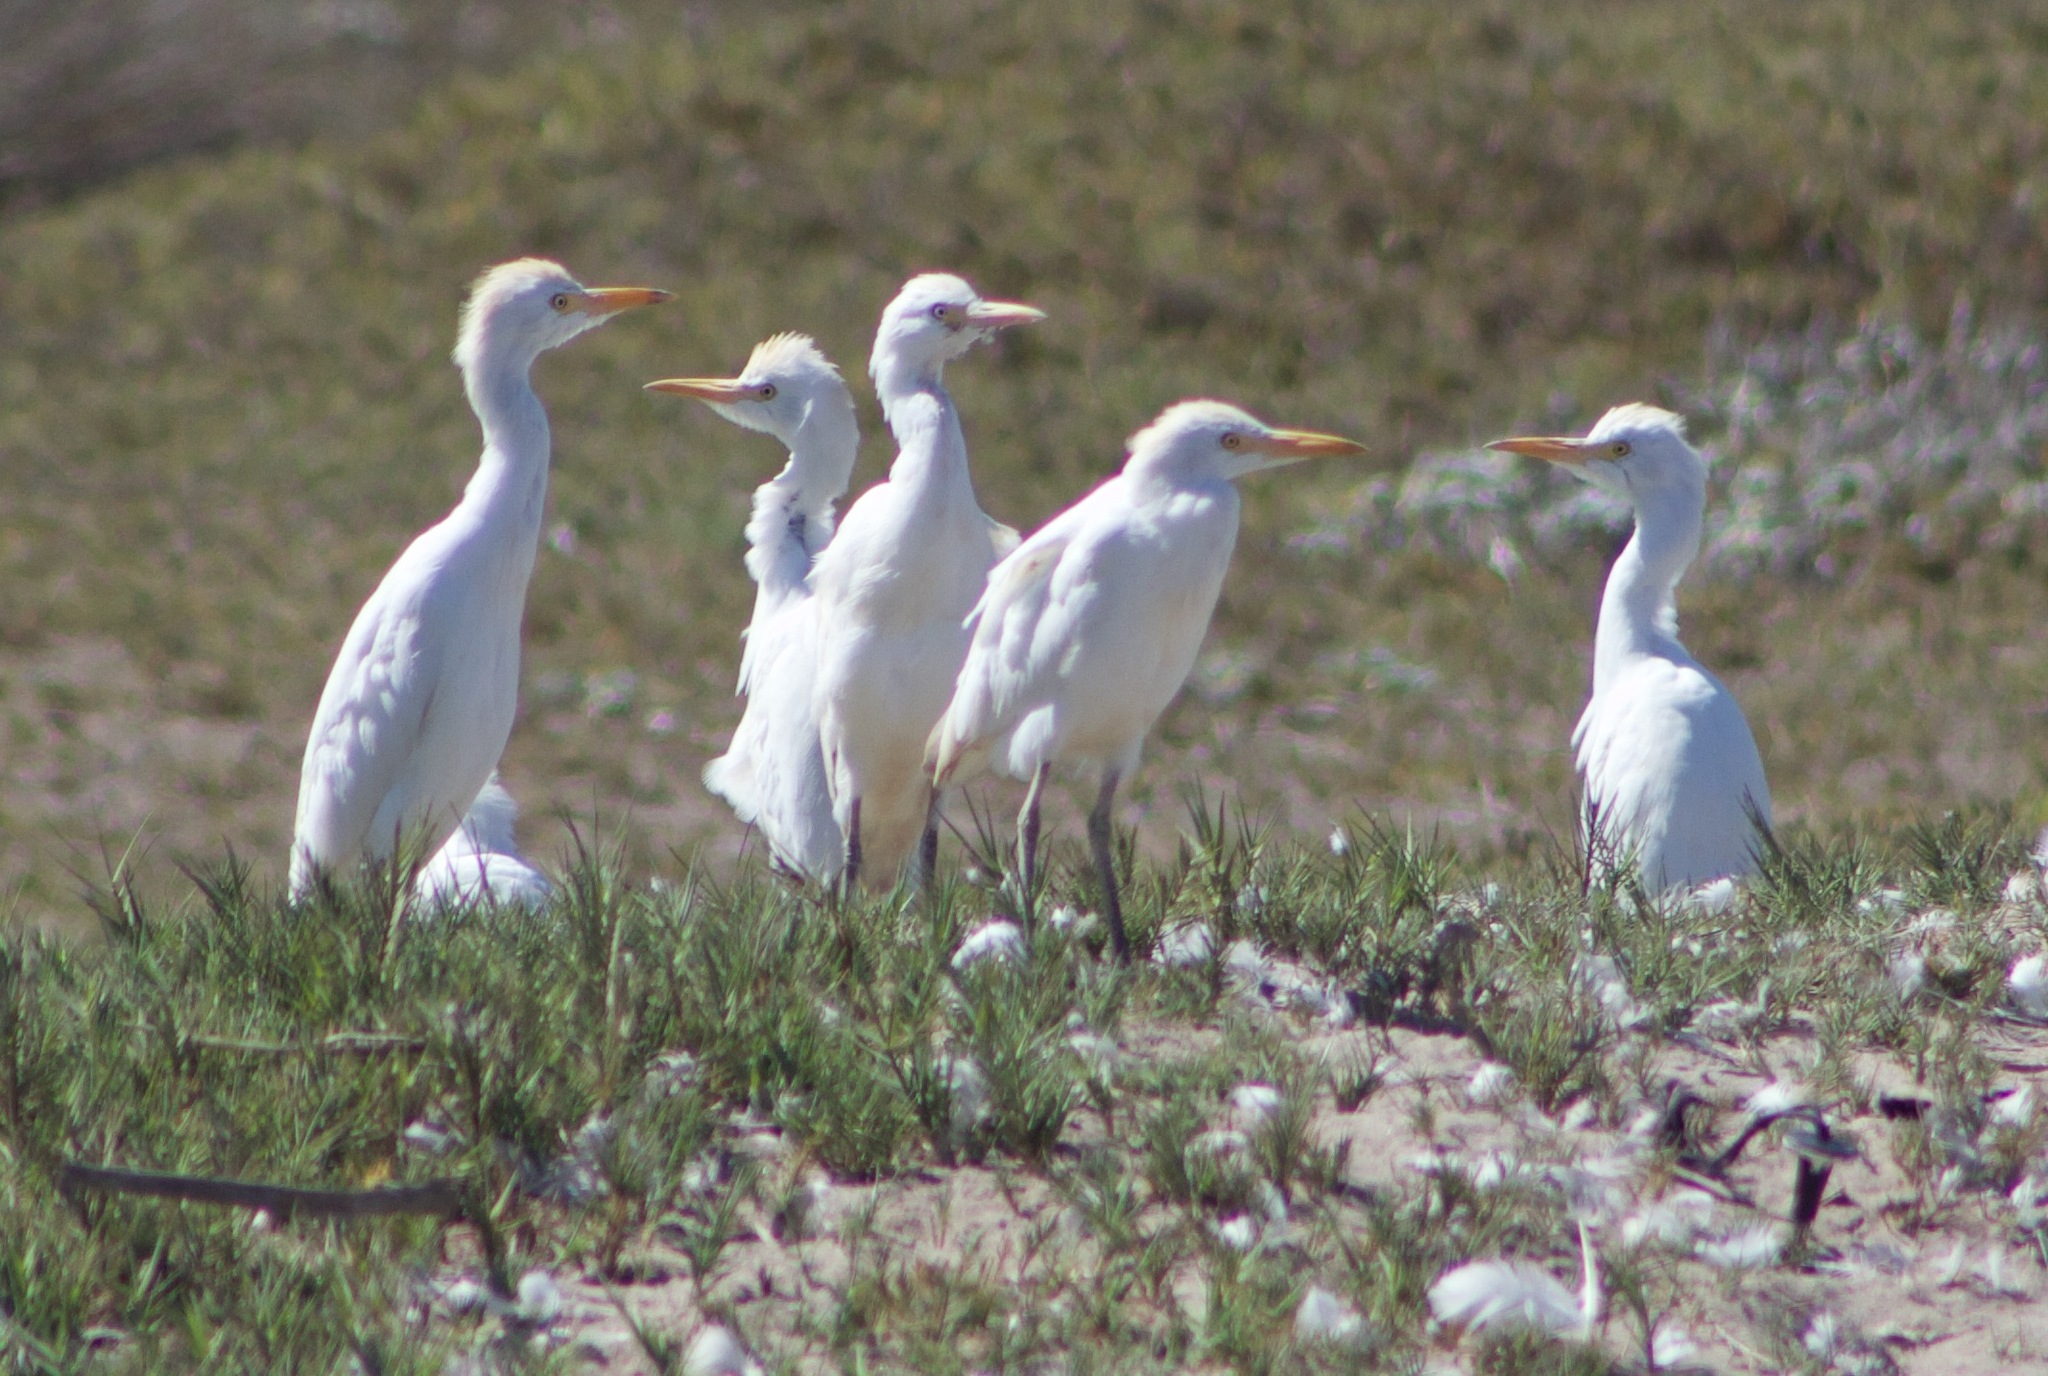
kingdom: Animalia
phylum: Chordata
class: Aves
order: Pelecaniformes
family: Ardeidae
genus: Bubulcus
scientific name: Bubulcus ibis
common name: Cattle egret
